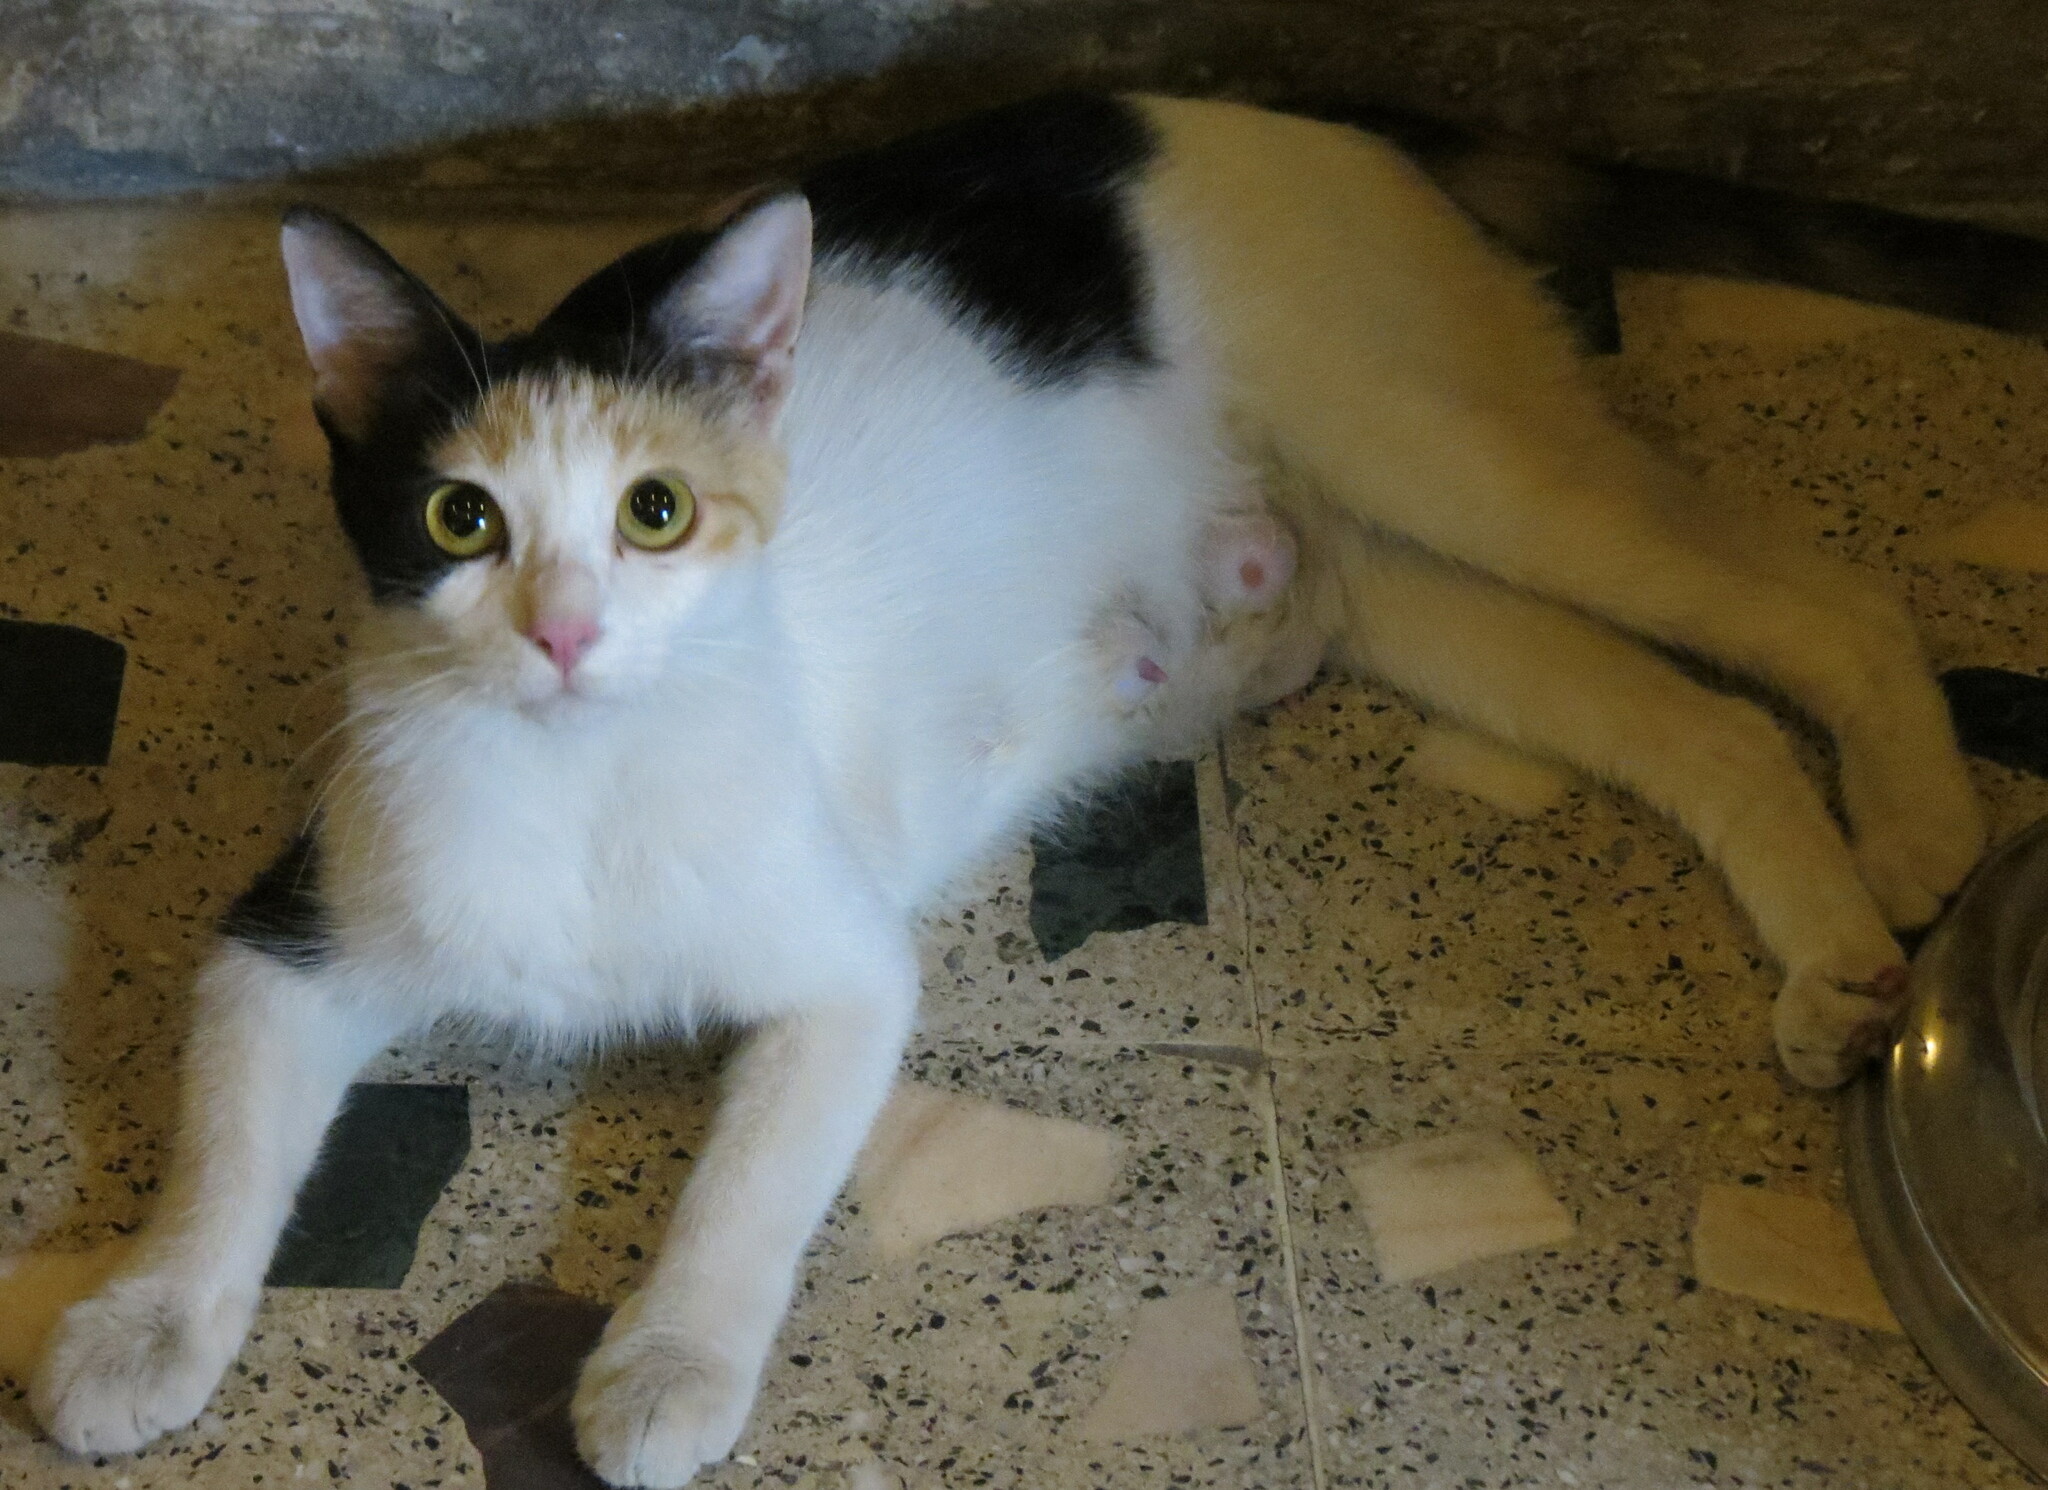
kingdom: Animalia
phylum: Chordata
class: Mammalia
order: Carnivora
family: Felidae
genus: Felis
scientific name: Felis catus
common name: Domestic cat
